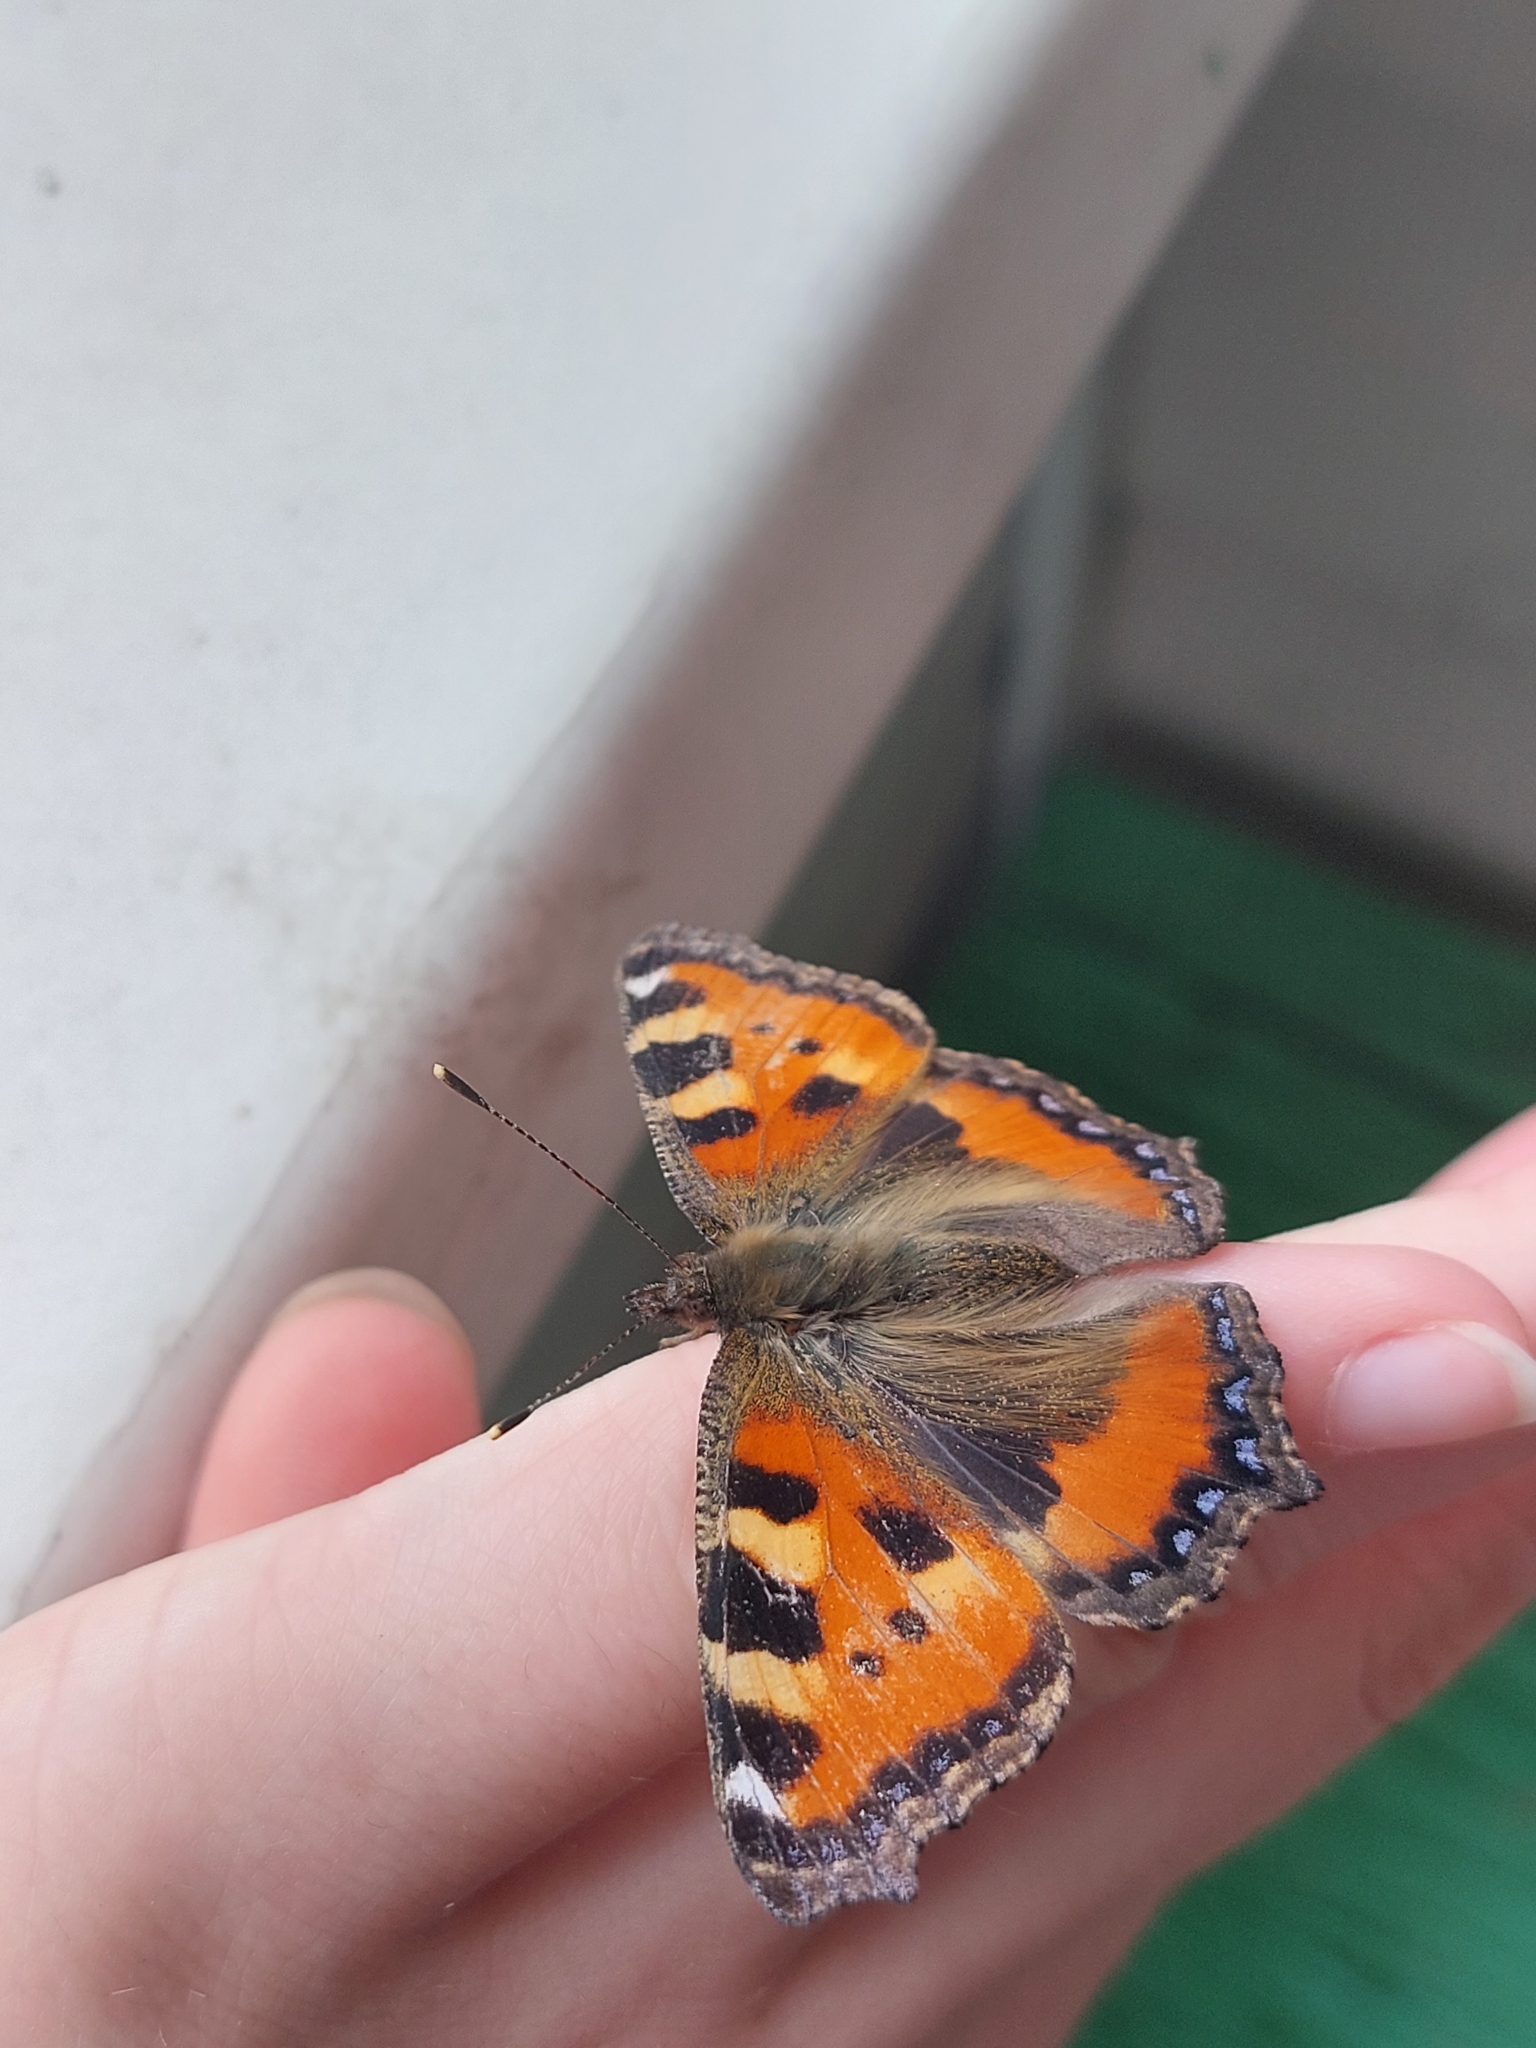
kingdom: Animalia
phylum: Arthropoda
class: Insecta
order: Lepidoptera
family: Nymphalidae
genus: Aglais
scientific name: Aglais urticae
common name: Small tortoiseshell
